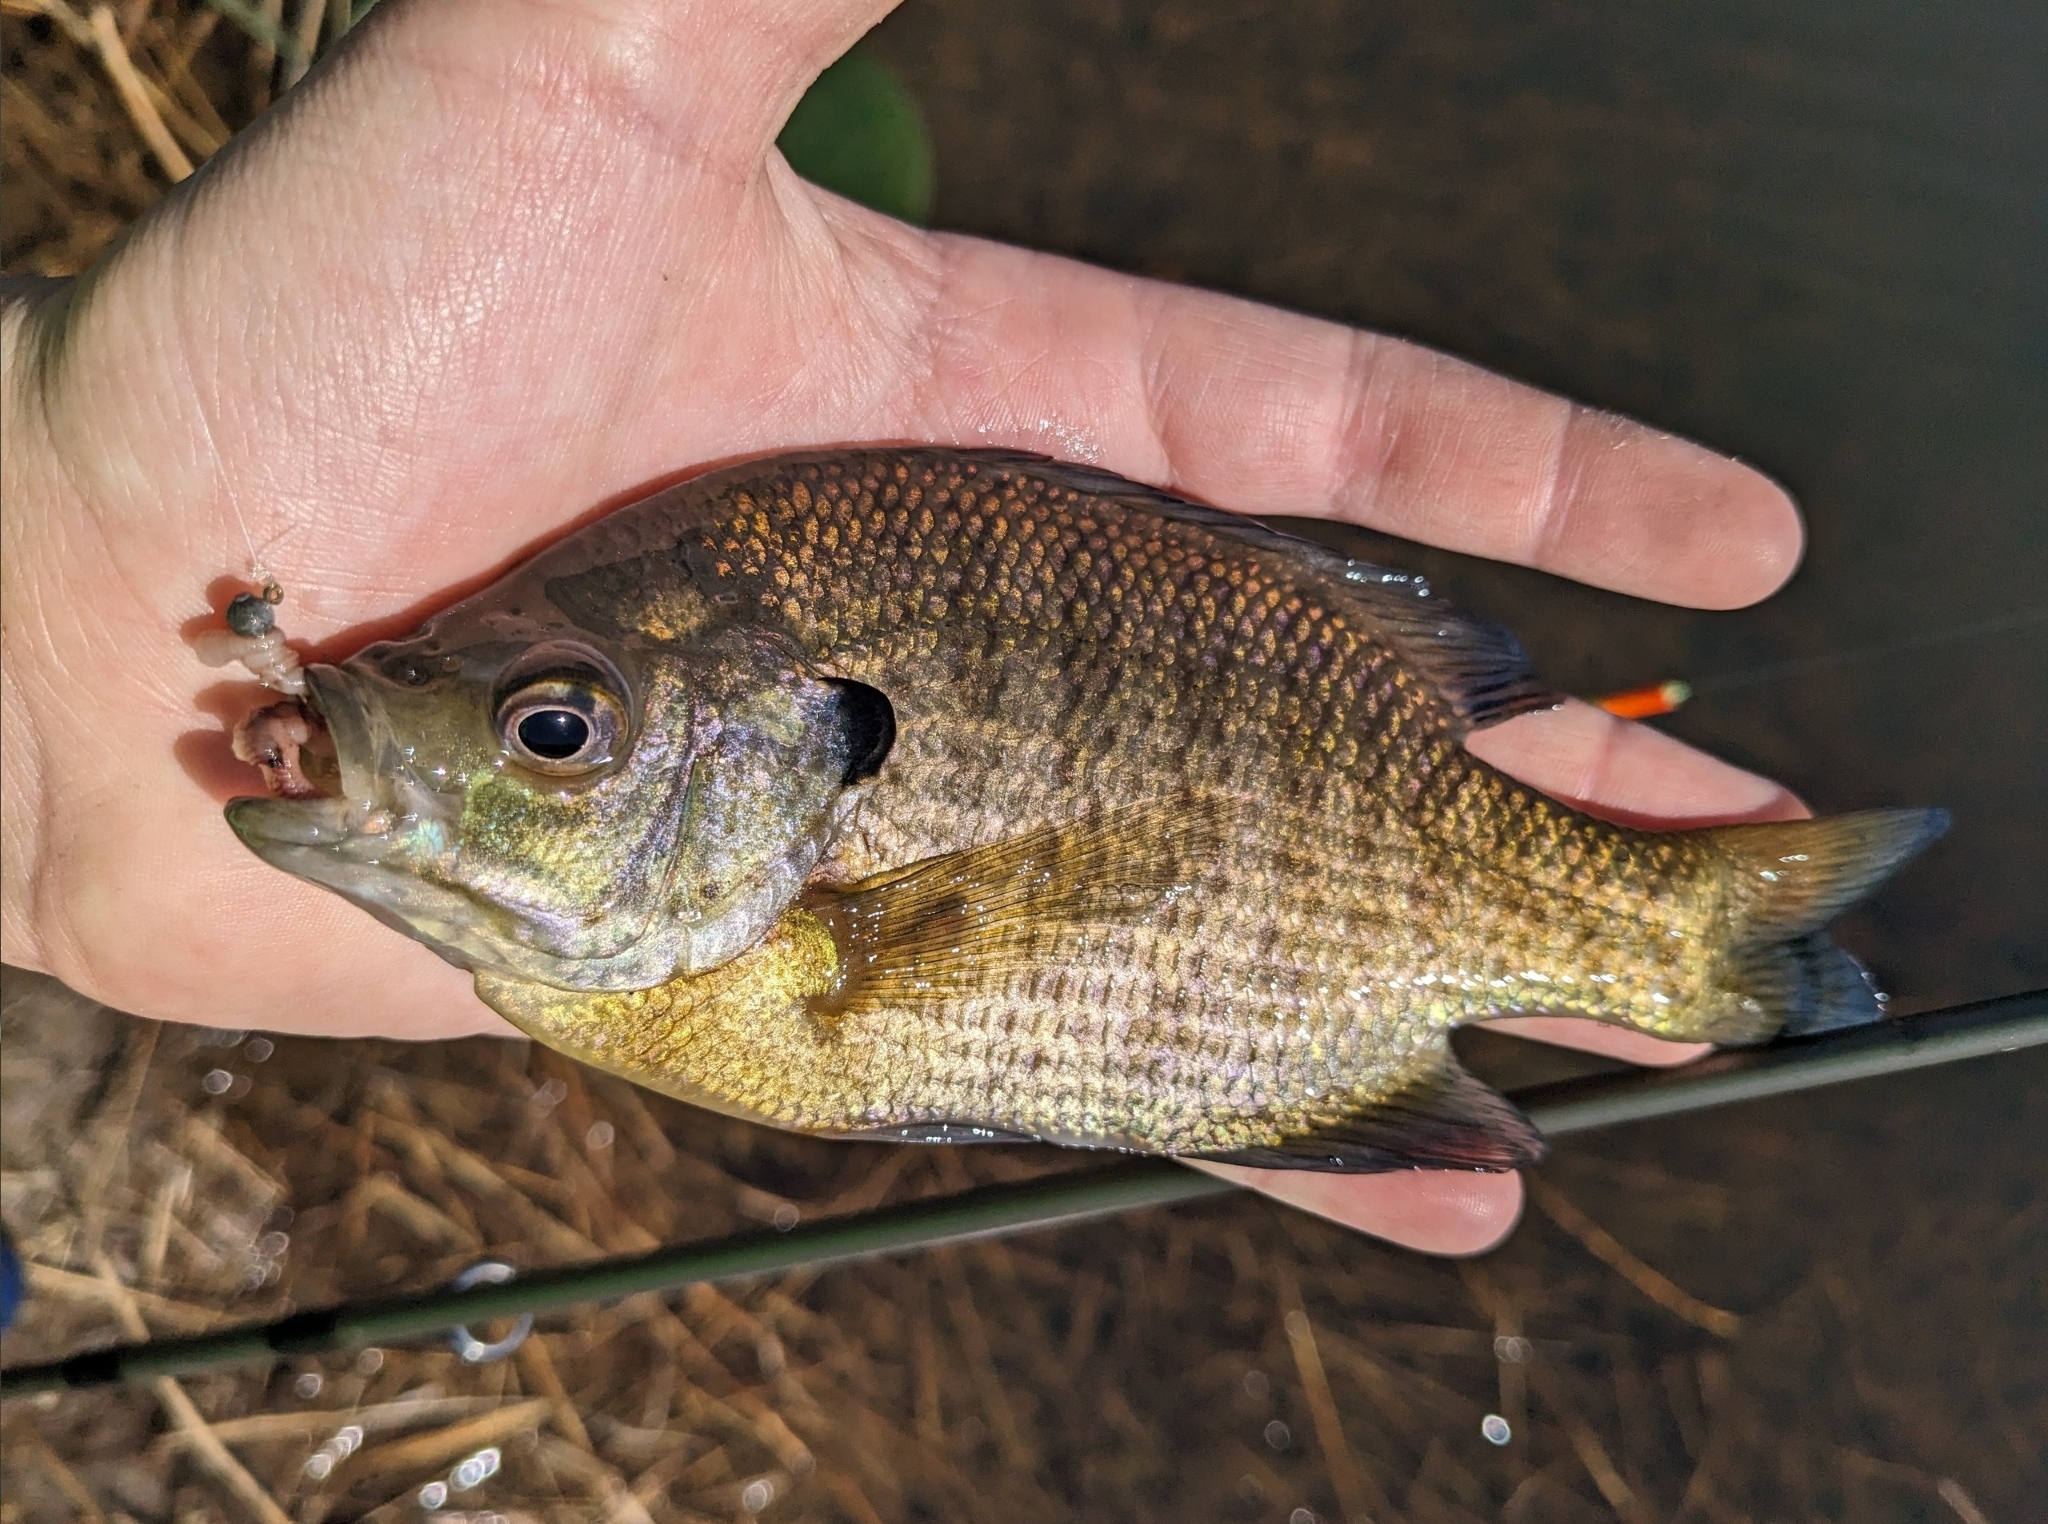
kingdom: Animalia
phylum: Chordata
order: Perciformes
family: Centrarchidae
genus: Lepomis
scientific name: Lepomis macrochirus
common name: Bluegill
